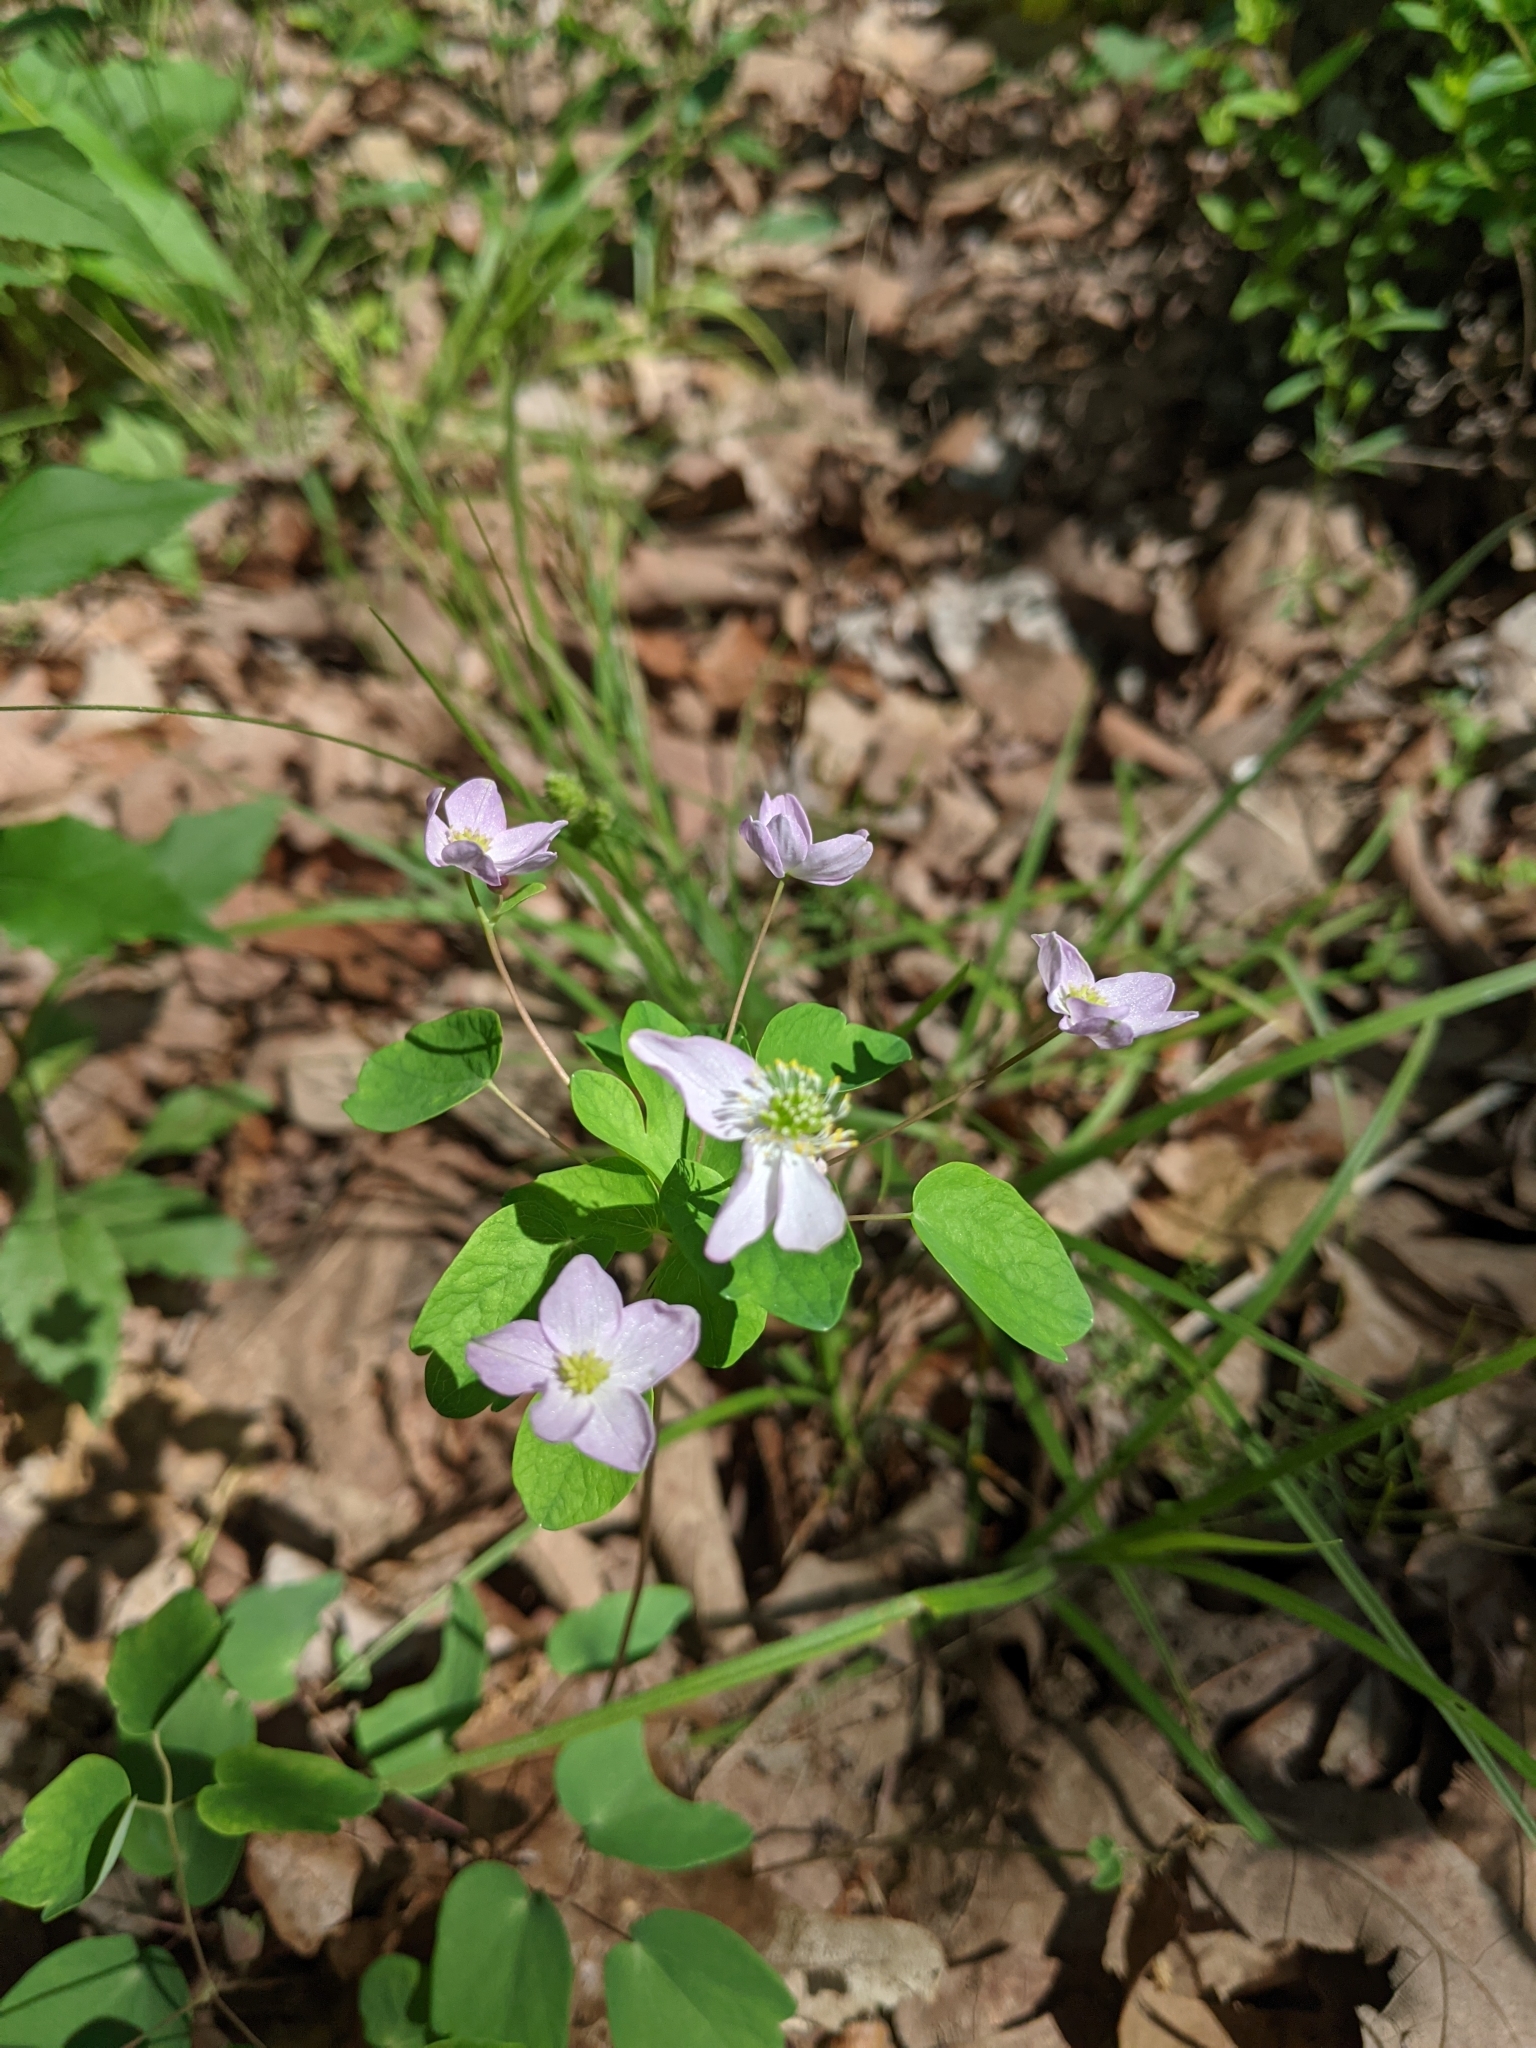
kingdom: Plantae
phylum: Tracheophyta
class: Magnoliopsida
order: Ranunculales
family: Ranunculaceae
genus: Thalictrum
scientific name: Thalictrum thalictroides
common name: Rue-anemone
